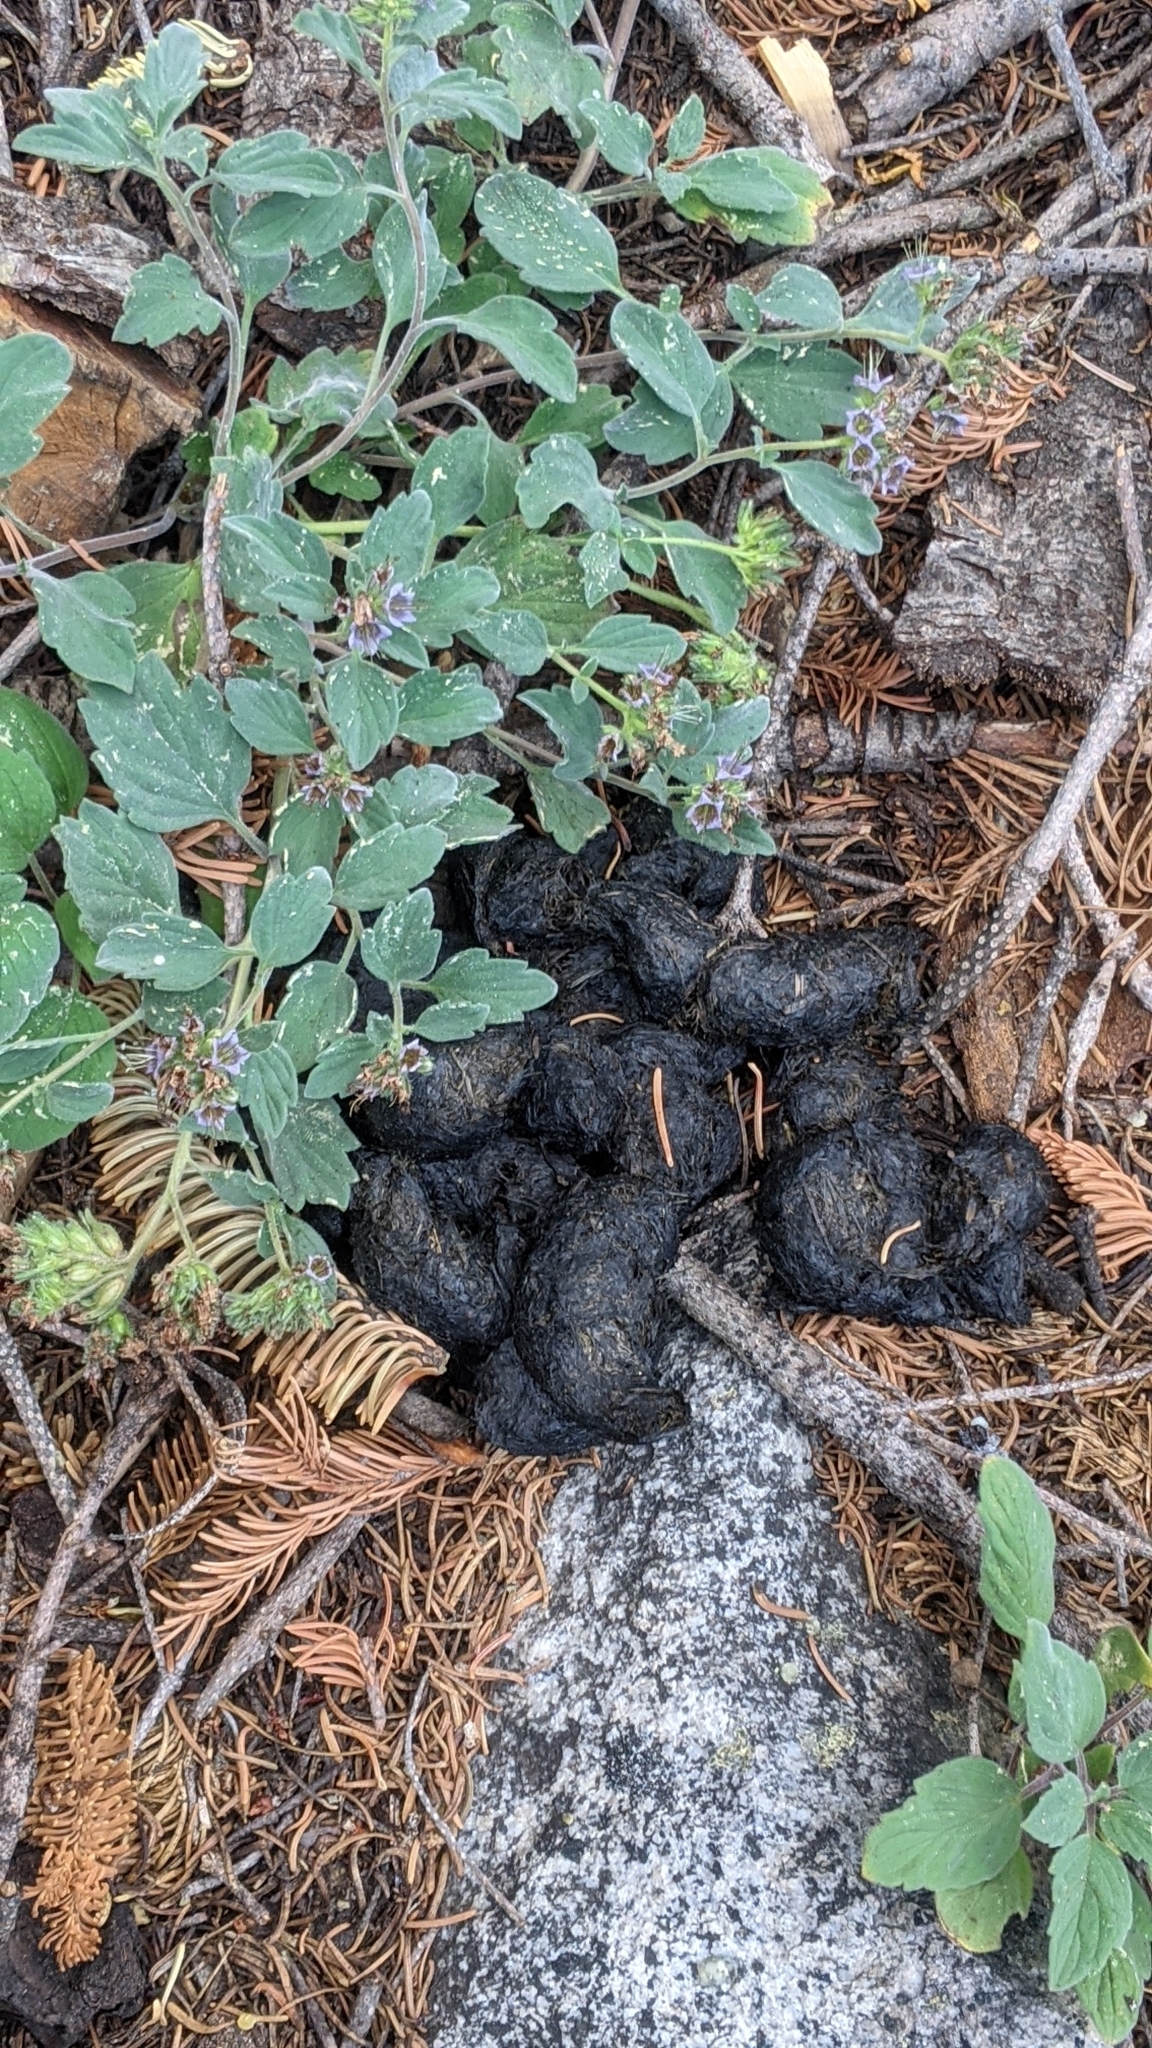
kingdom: Animalia
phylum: Chordata
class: Mammalia
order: Carnivora
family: Ursidae
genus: Ursus
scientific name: Ursus americanus
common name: American black bear
